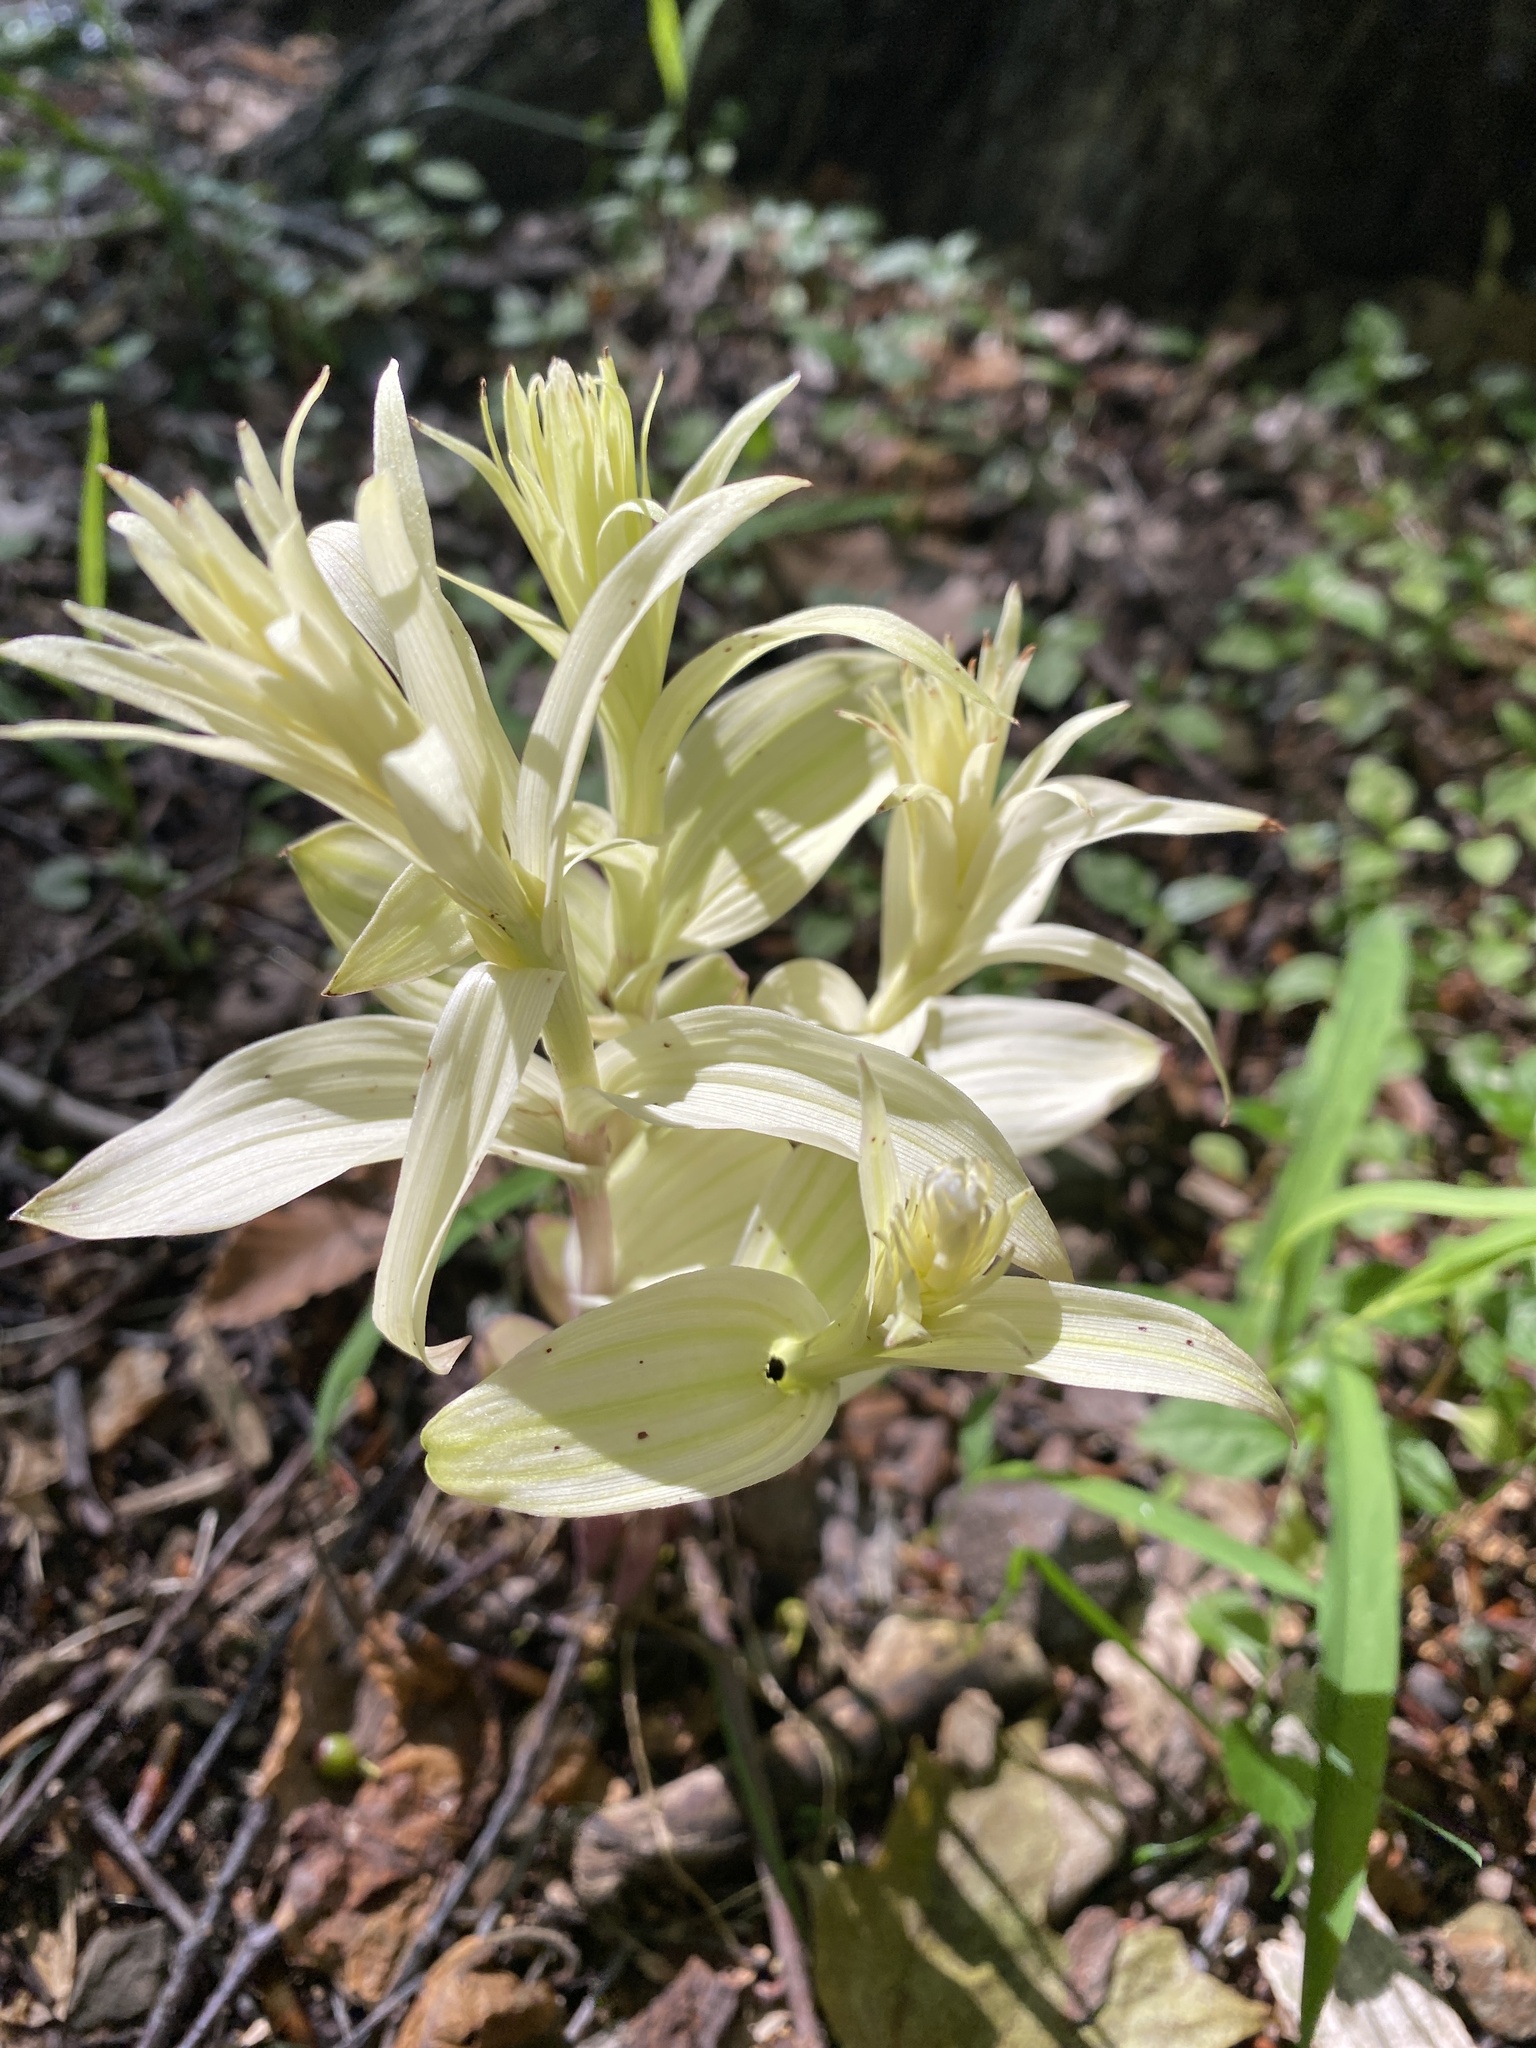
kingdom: Plantae
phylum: Tracheophyta
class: Liliopsida
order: Asparagales
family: Orchidaceae
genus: Epipactis
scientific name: Epipactis helleborine
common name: Broad-leaved helleborine
